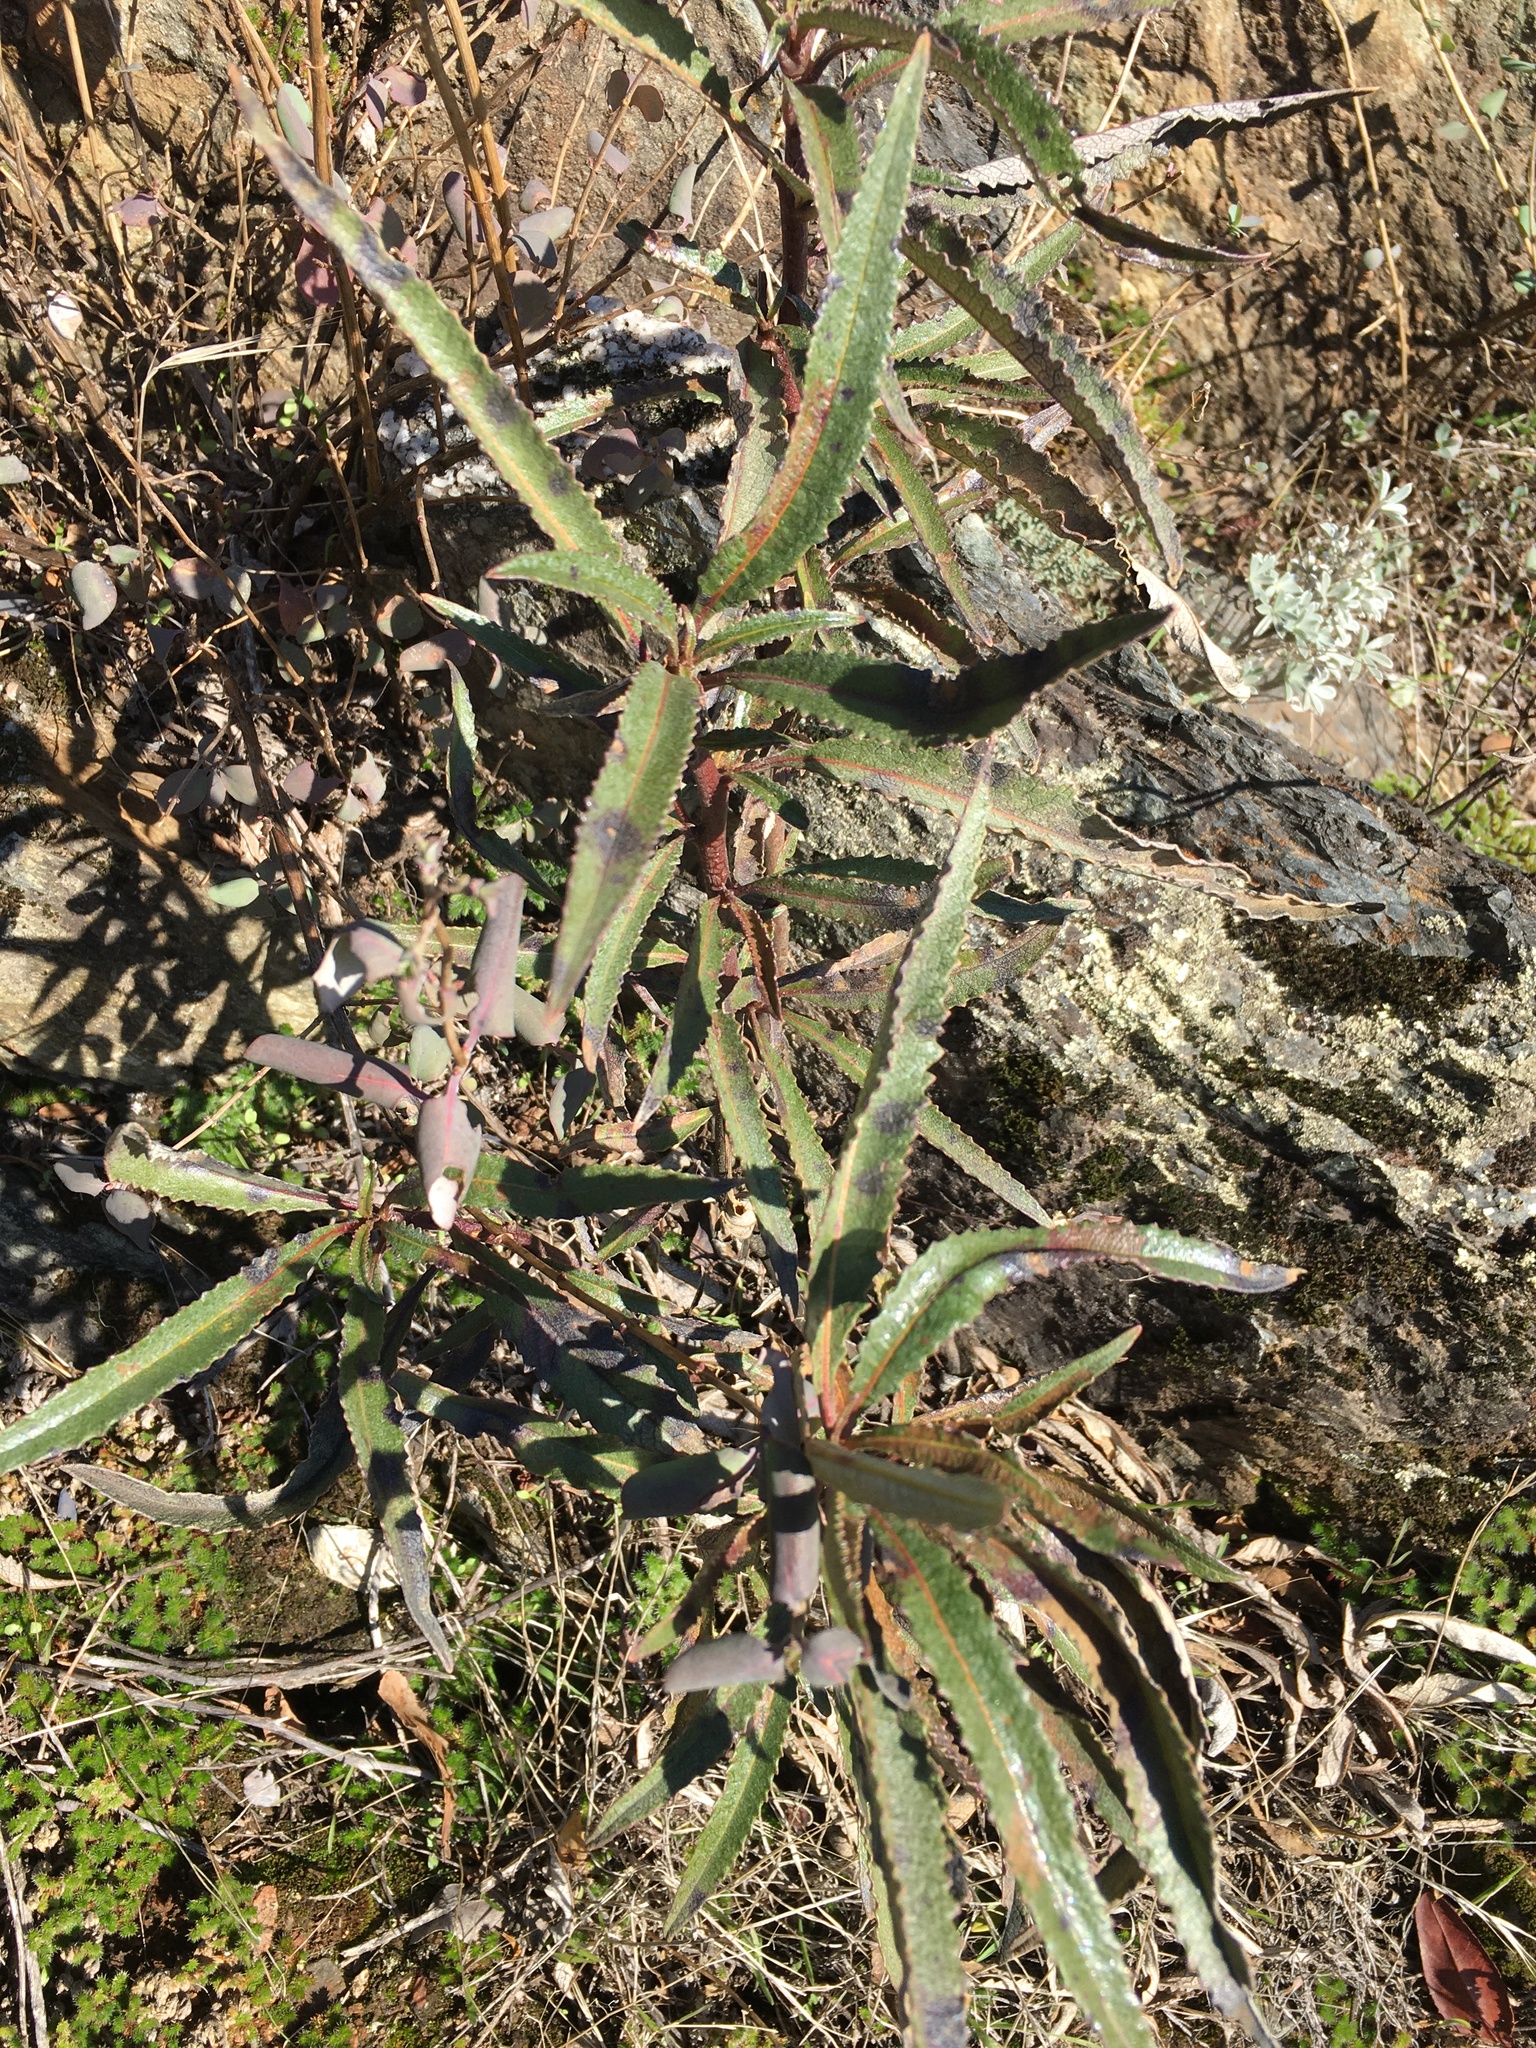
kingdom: Plantae
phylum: Tracheophyta
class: Magnoliopsida
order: Boraginales
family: Namaceae
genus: Eriodictyon
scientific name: Eriodictyon californicum
